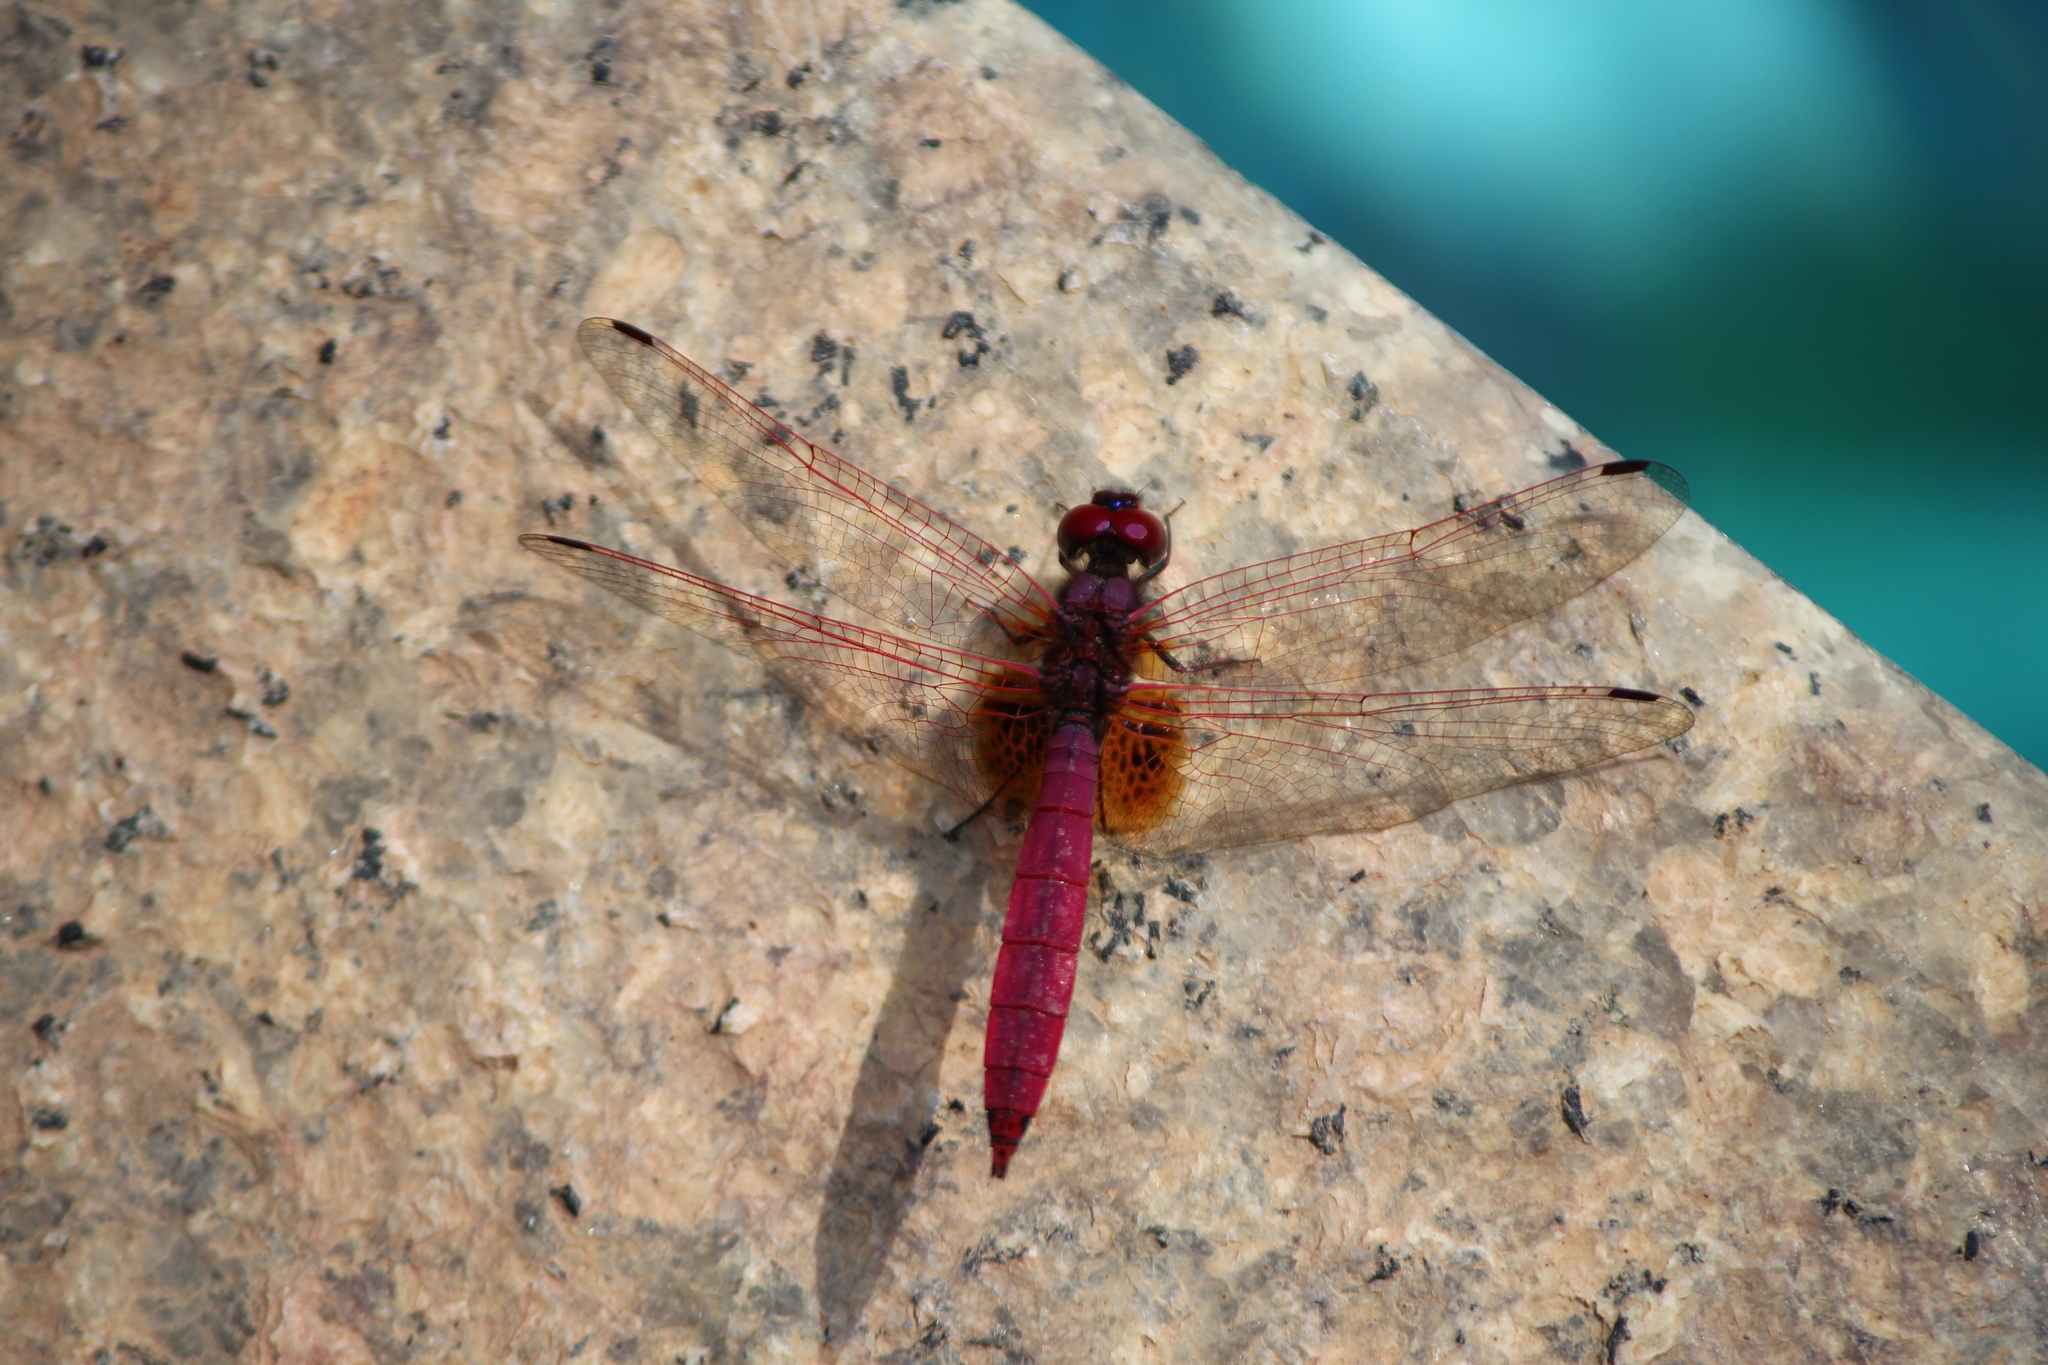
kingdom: Animalia
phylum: Arthropoda
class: Insecta
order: Odonata
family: Libellulidae
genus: Trithemis
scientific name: Trithemis aurora
